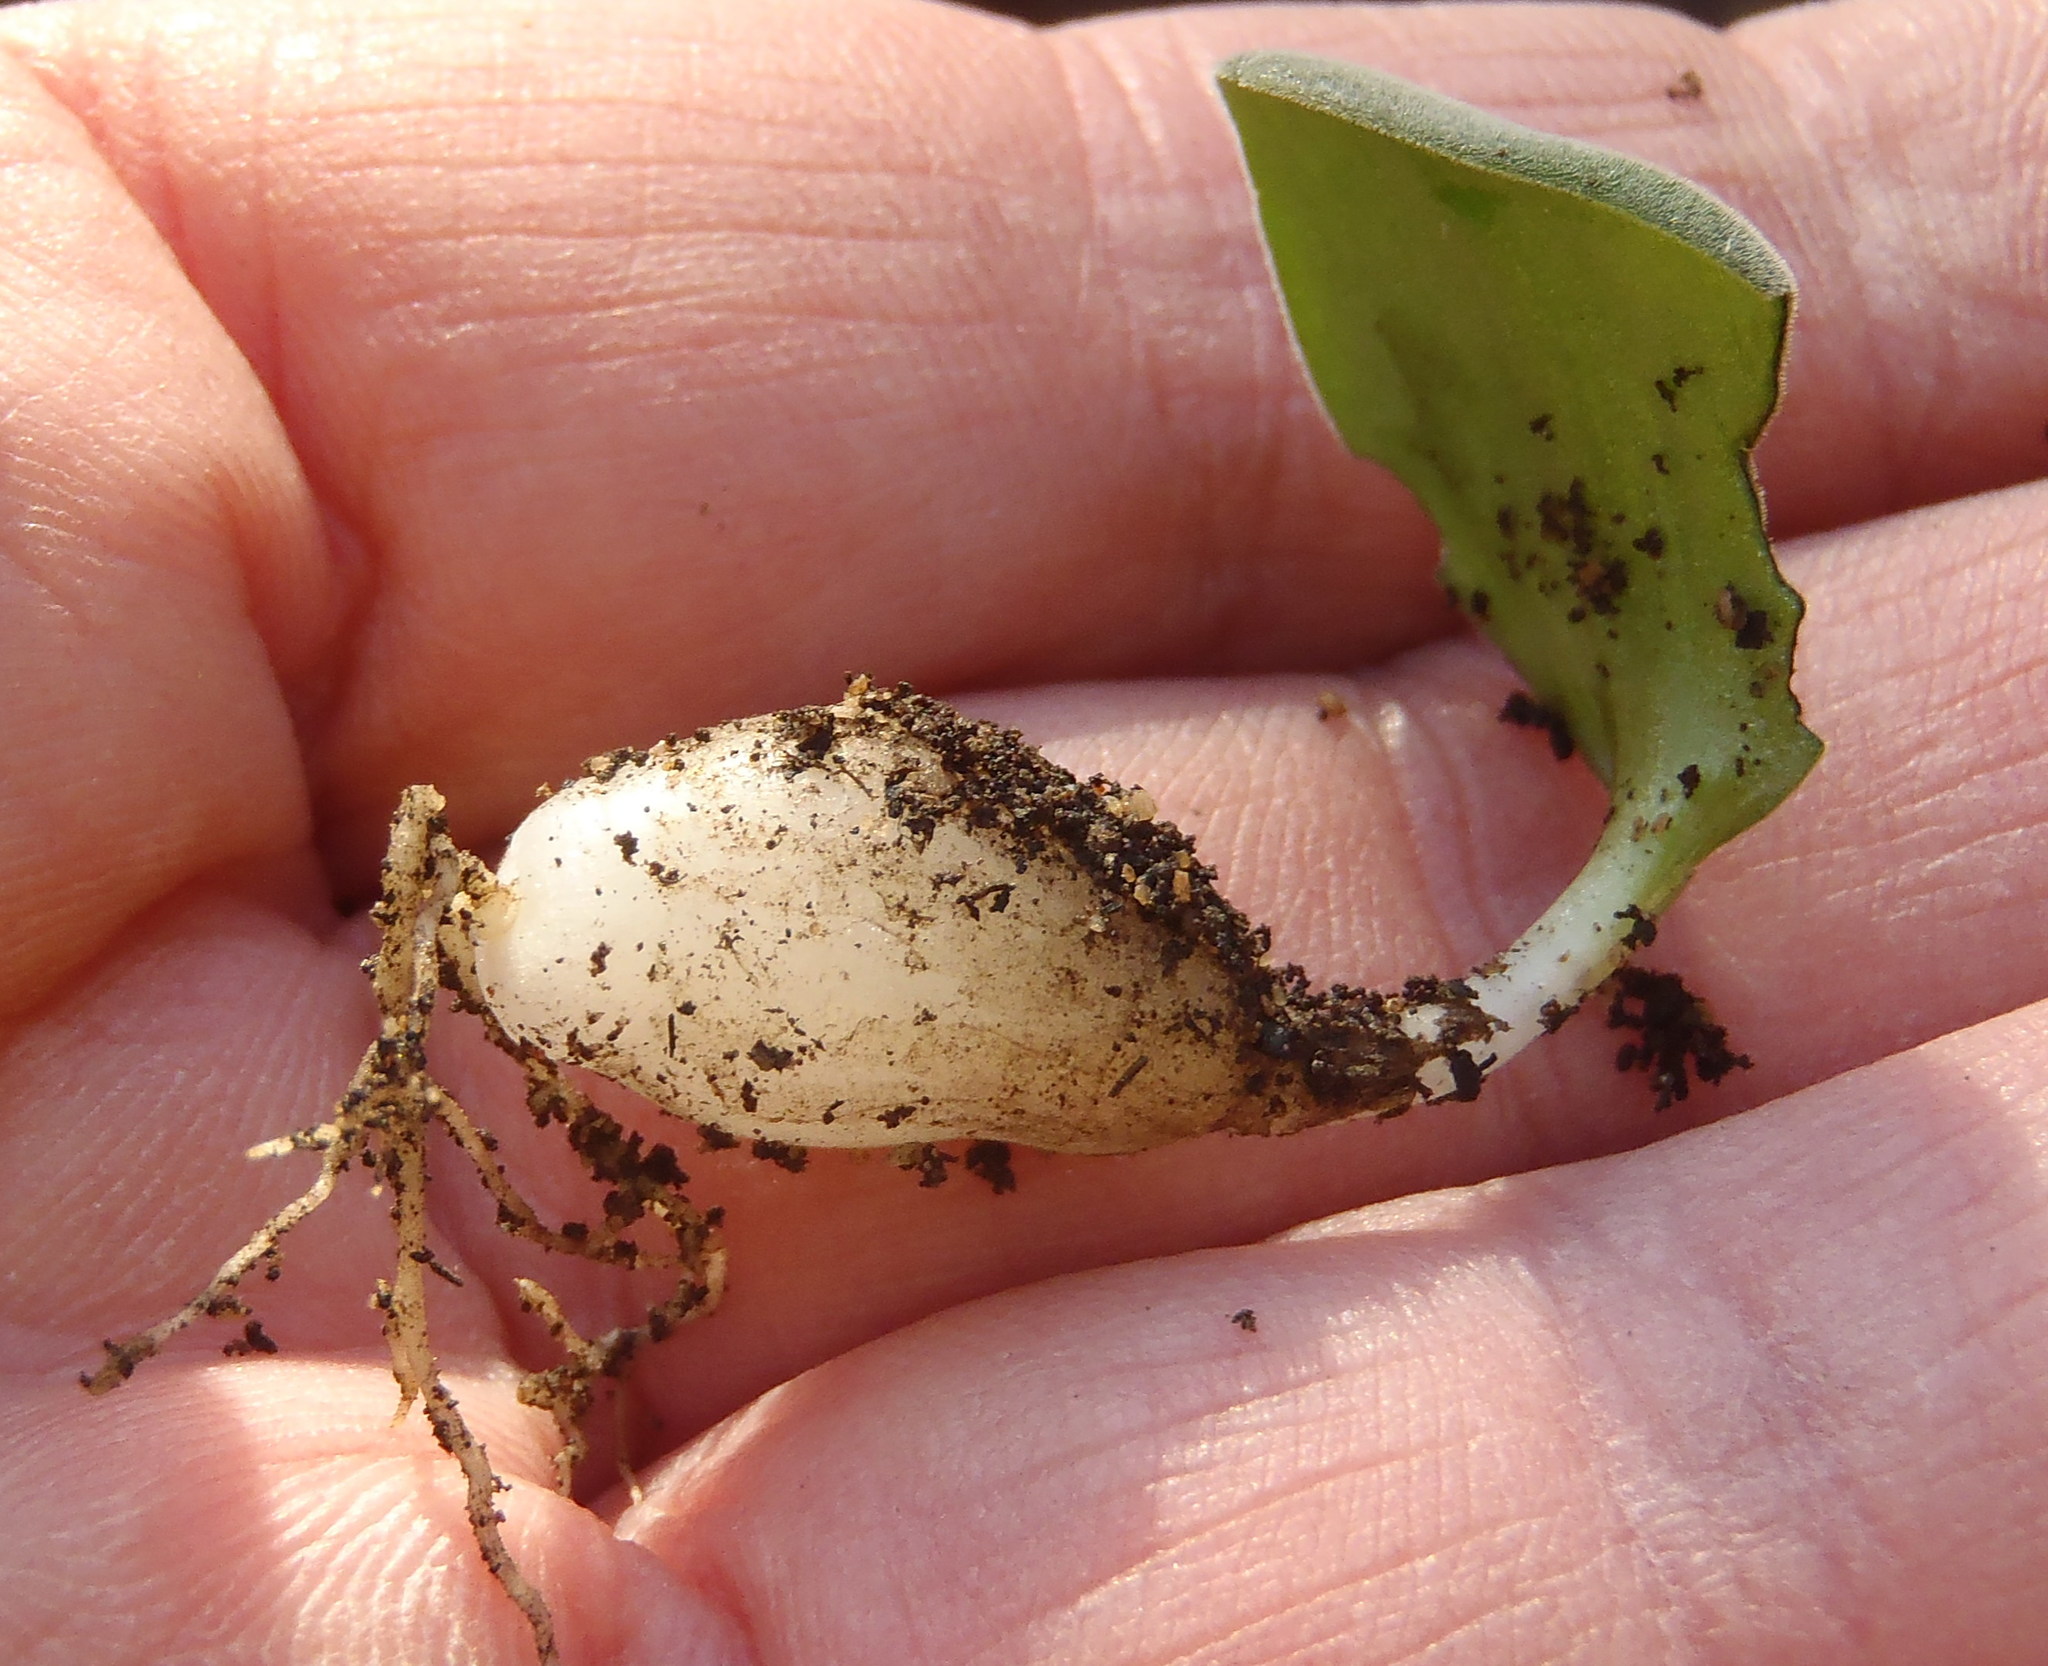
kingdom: Plantae
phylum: Tracheophyta
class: Liliopsida
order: Asparagales
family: Asparagaceae
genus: Drimia
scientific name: Drimia platyphylla
